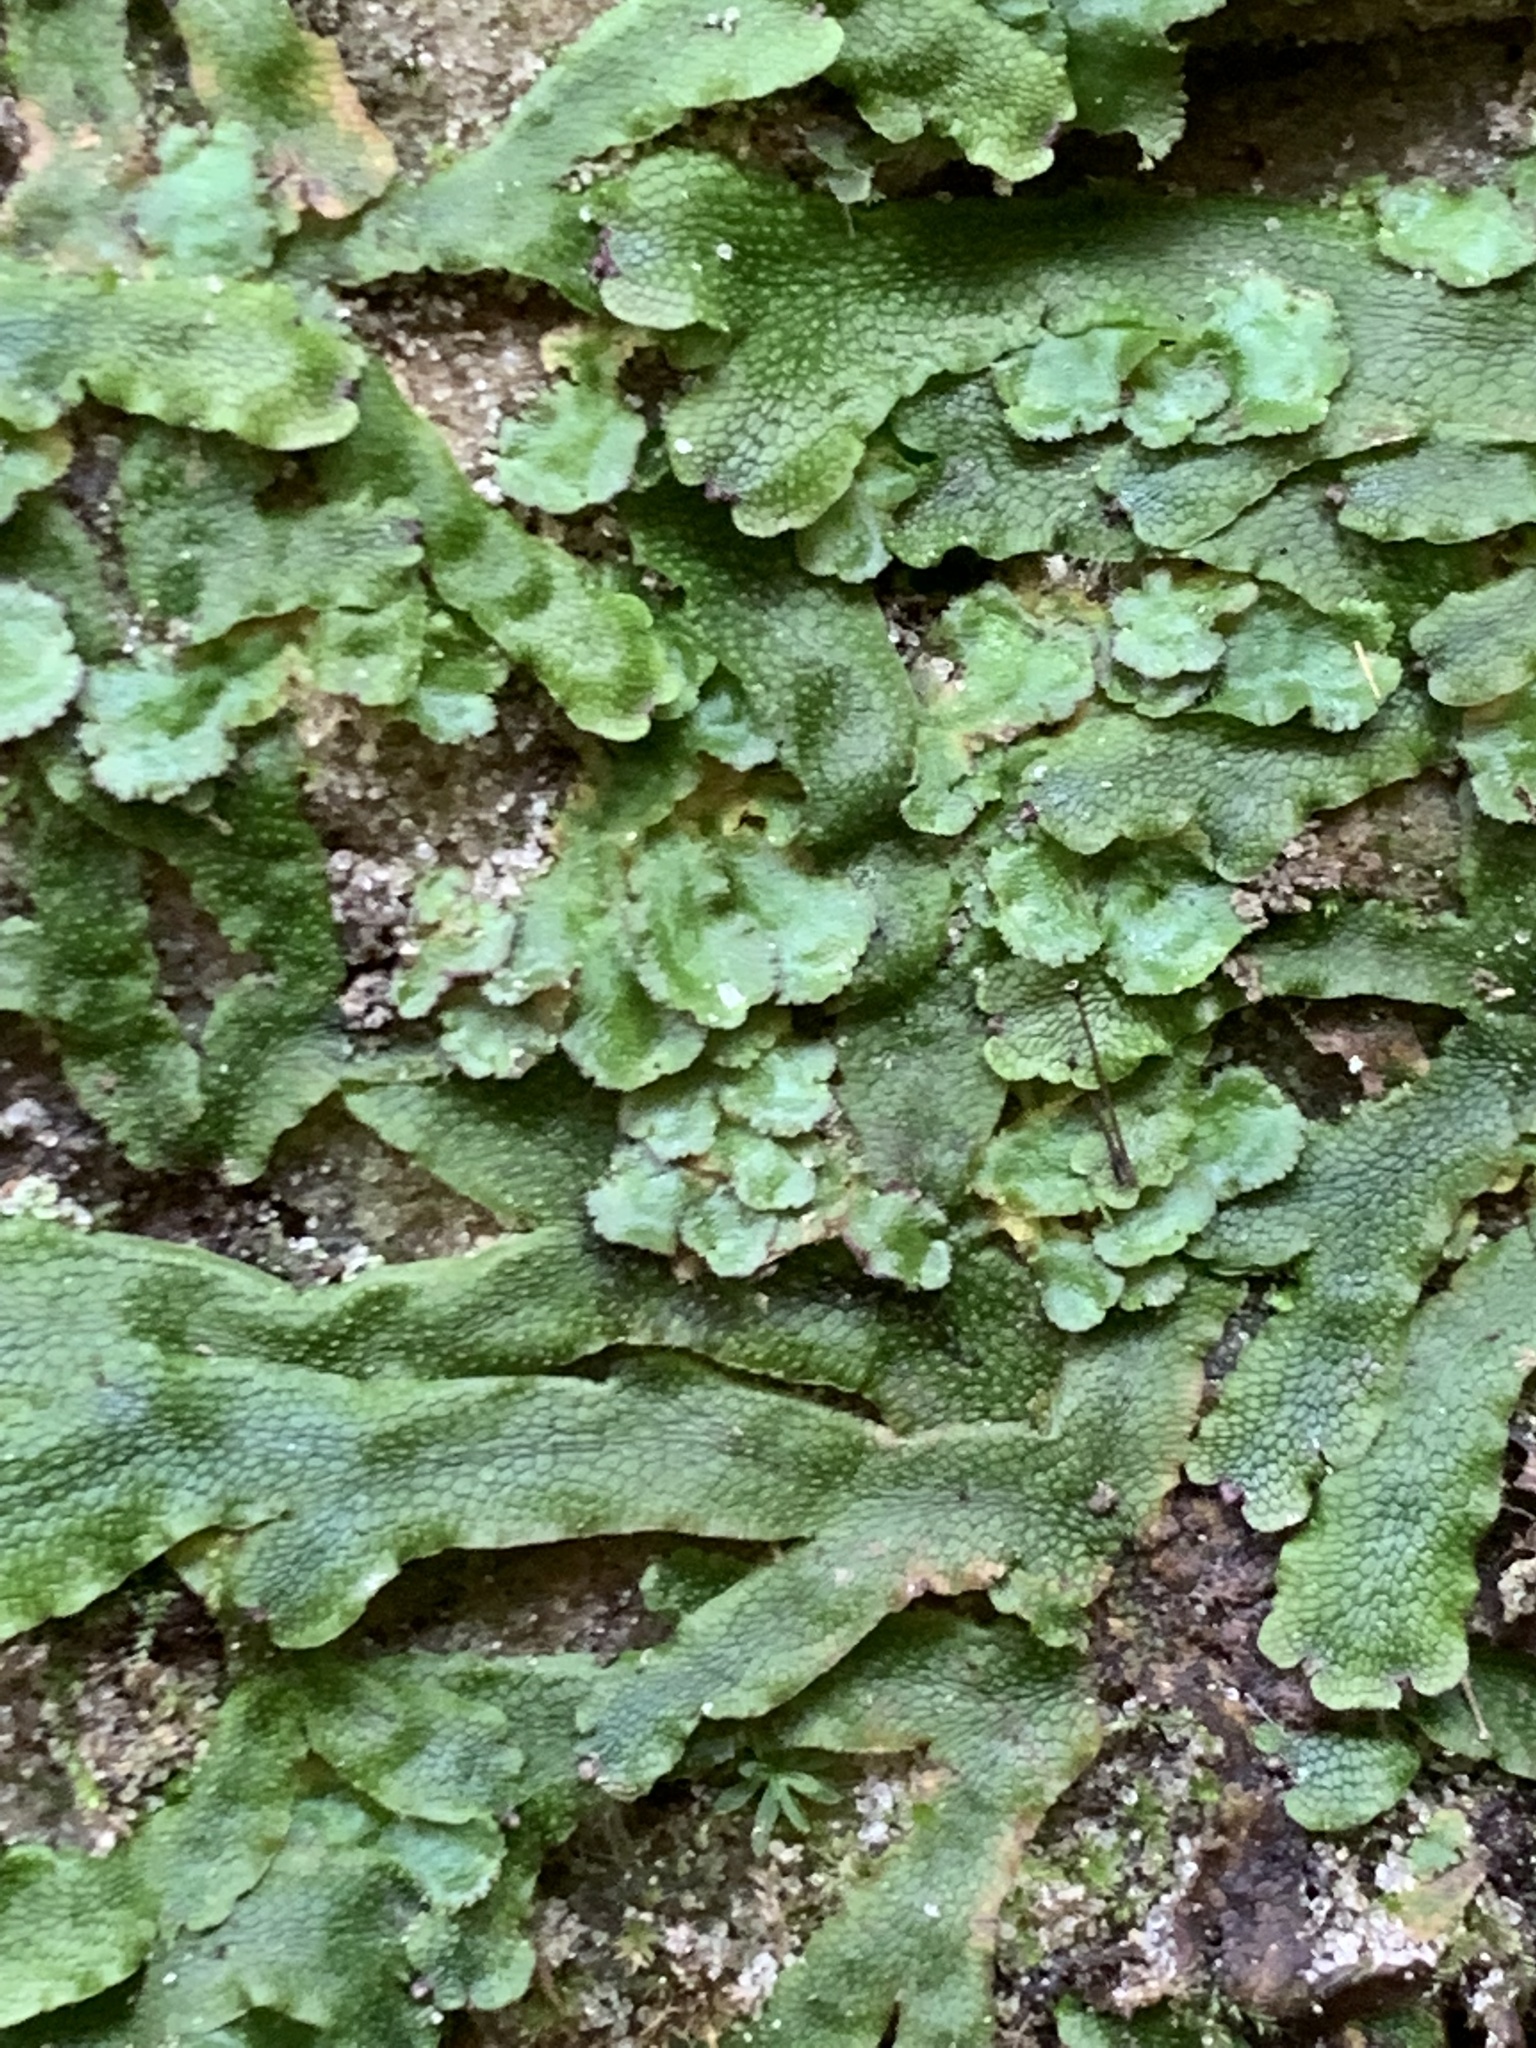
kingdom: Plantae
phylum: Marchantiophyta
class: Marchantiopsida
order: Marchantiales
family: Conocephalaceae
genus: Conocephalum
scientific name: Conocephalum salebrosum
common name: Cat-tongue liverwort
